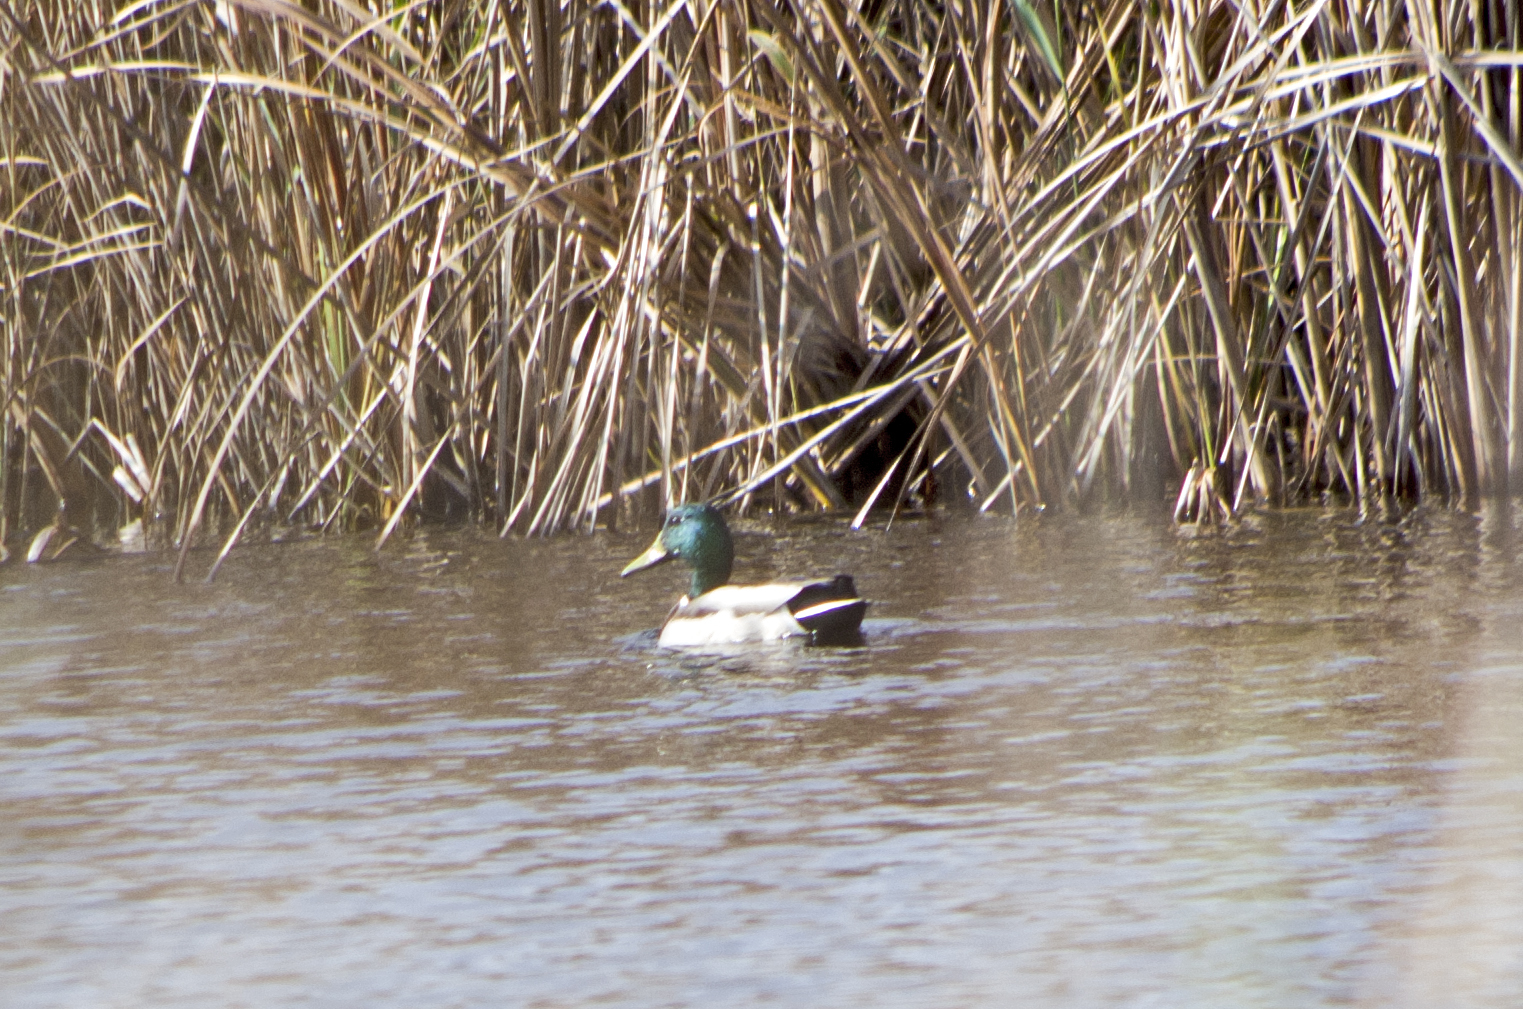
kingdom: Animalia
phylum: Chordata
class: Aves
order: Anseriformes
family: Anatidae
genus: Anas
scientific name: Anas platyrhynchos
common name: Mallard
